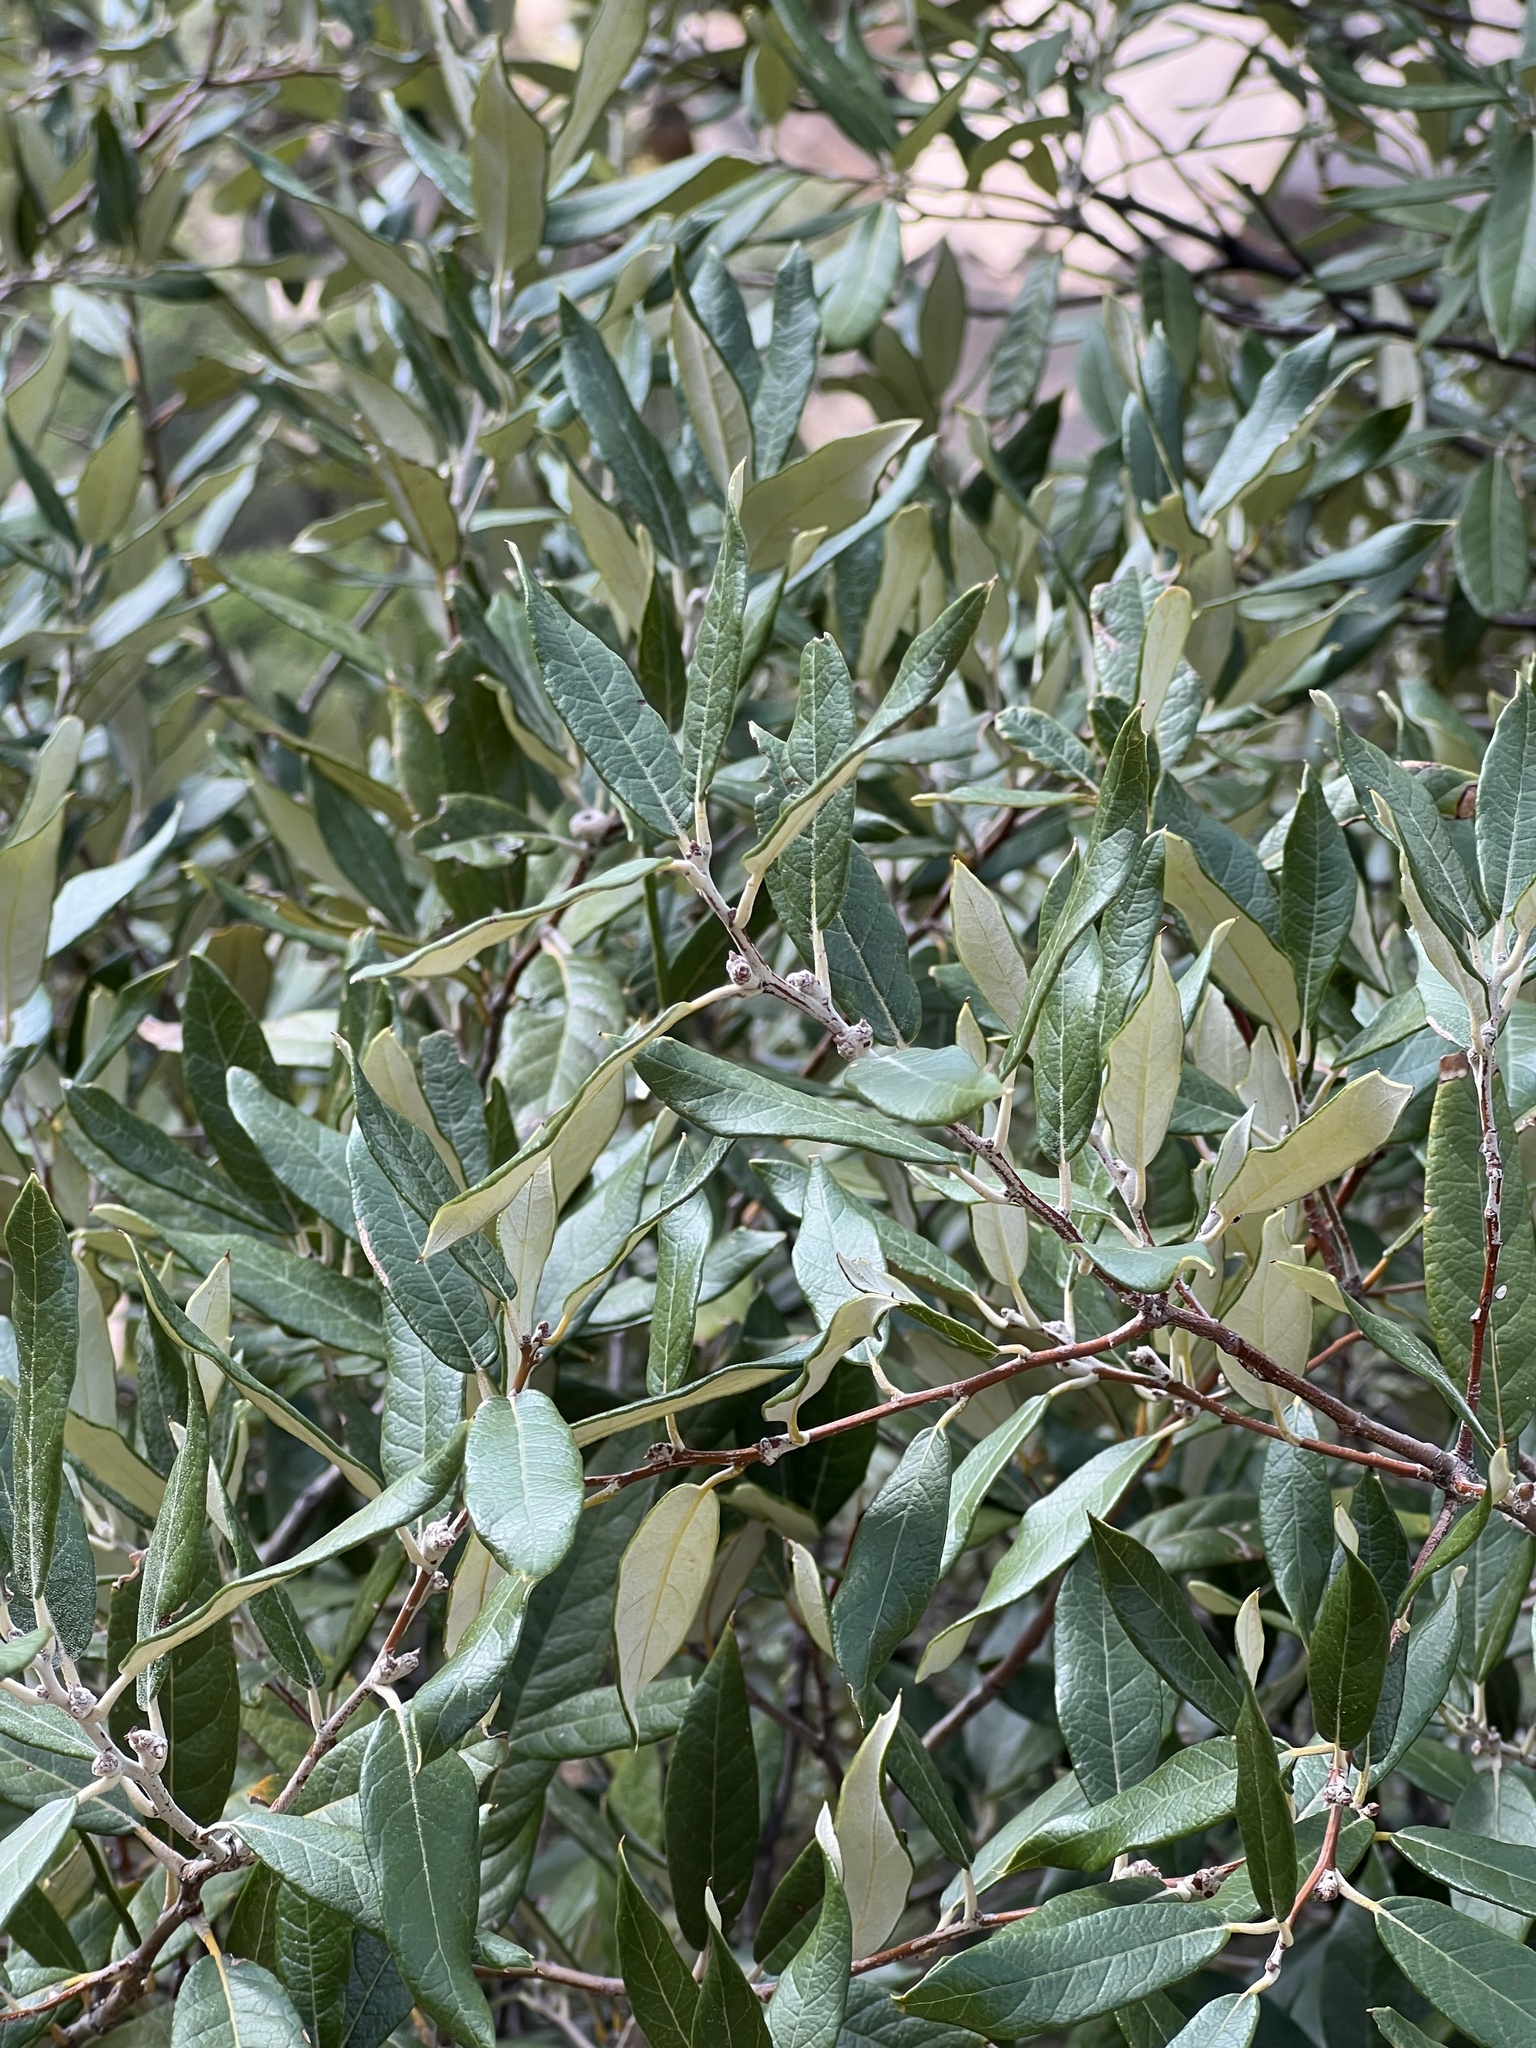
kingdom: Plantae
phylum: Tracheophyta
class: Magnoliopsida
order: Fagales
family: Fagaceae
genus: Quercus
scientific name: Quercus hypoleucoides
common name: Silverleaf oak
